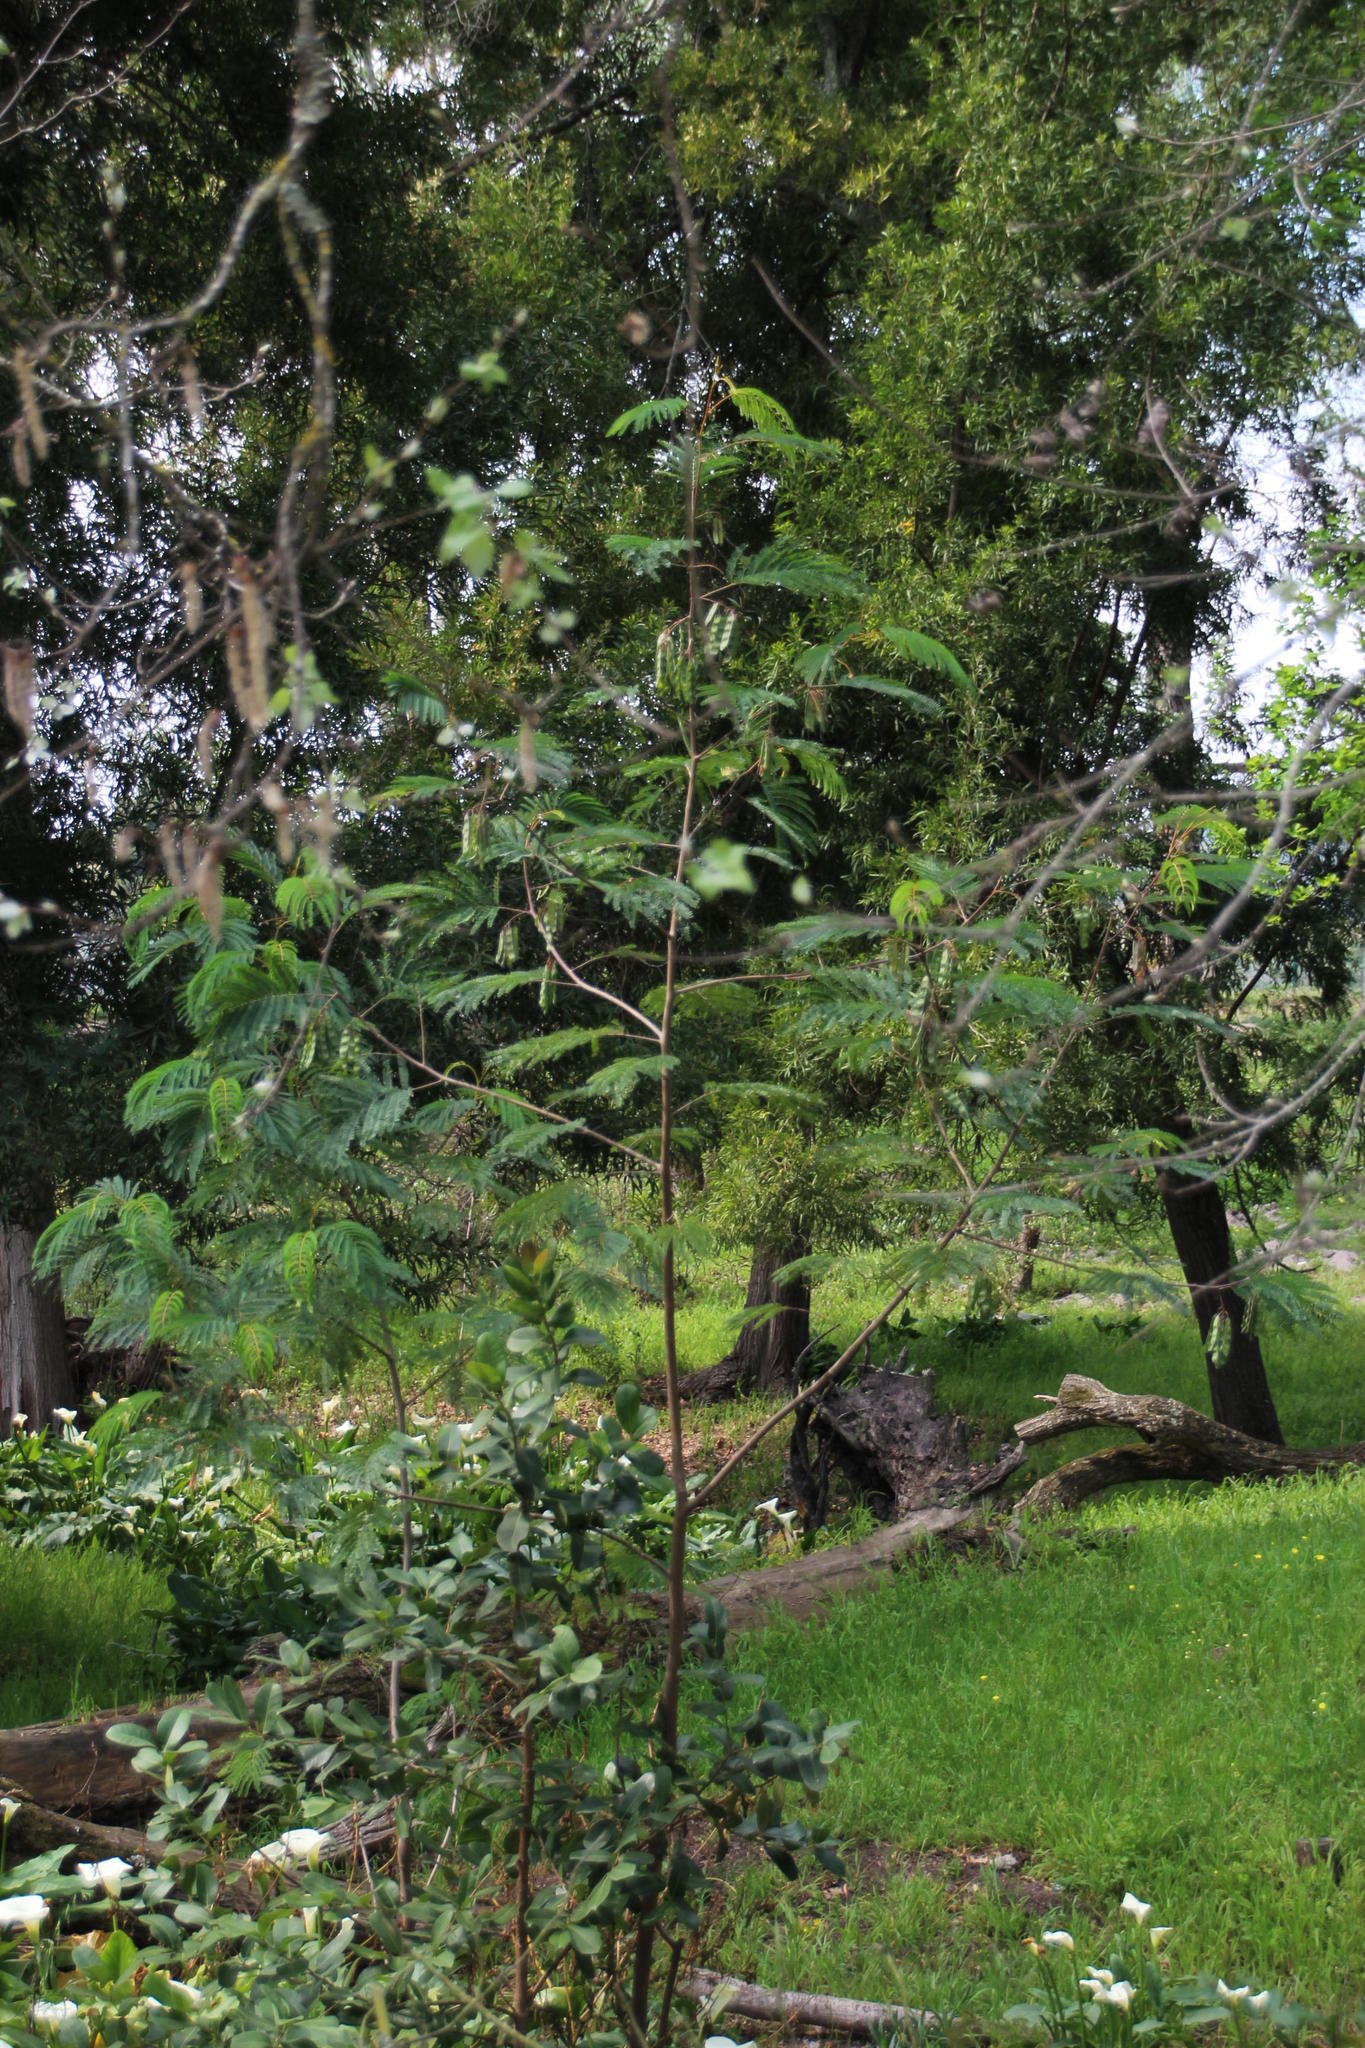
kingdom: Plantae
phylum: Tracheophyta
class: Magnoliopsida
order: Fabales
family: Fabaceae
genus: Paraserianthes
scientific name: Paraserianthes lophantha
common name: Plume albizia
